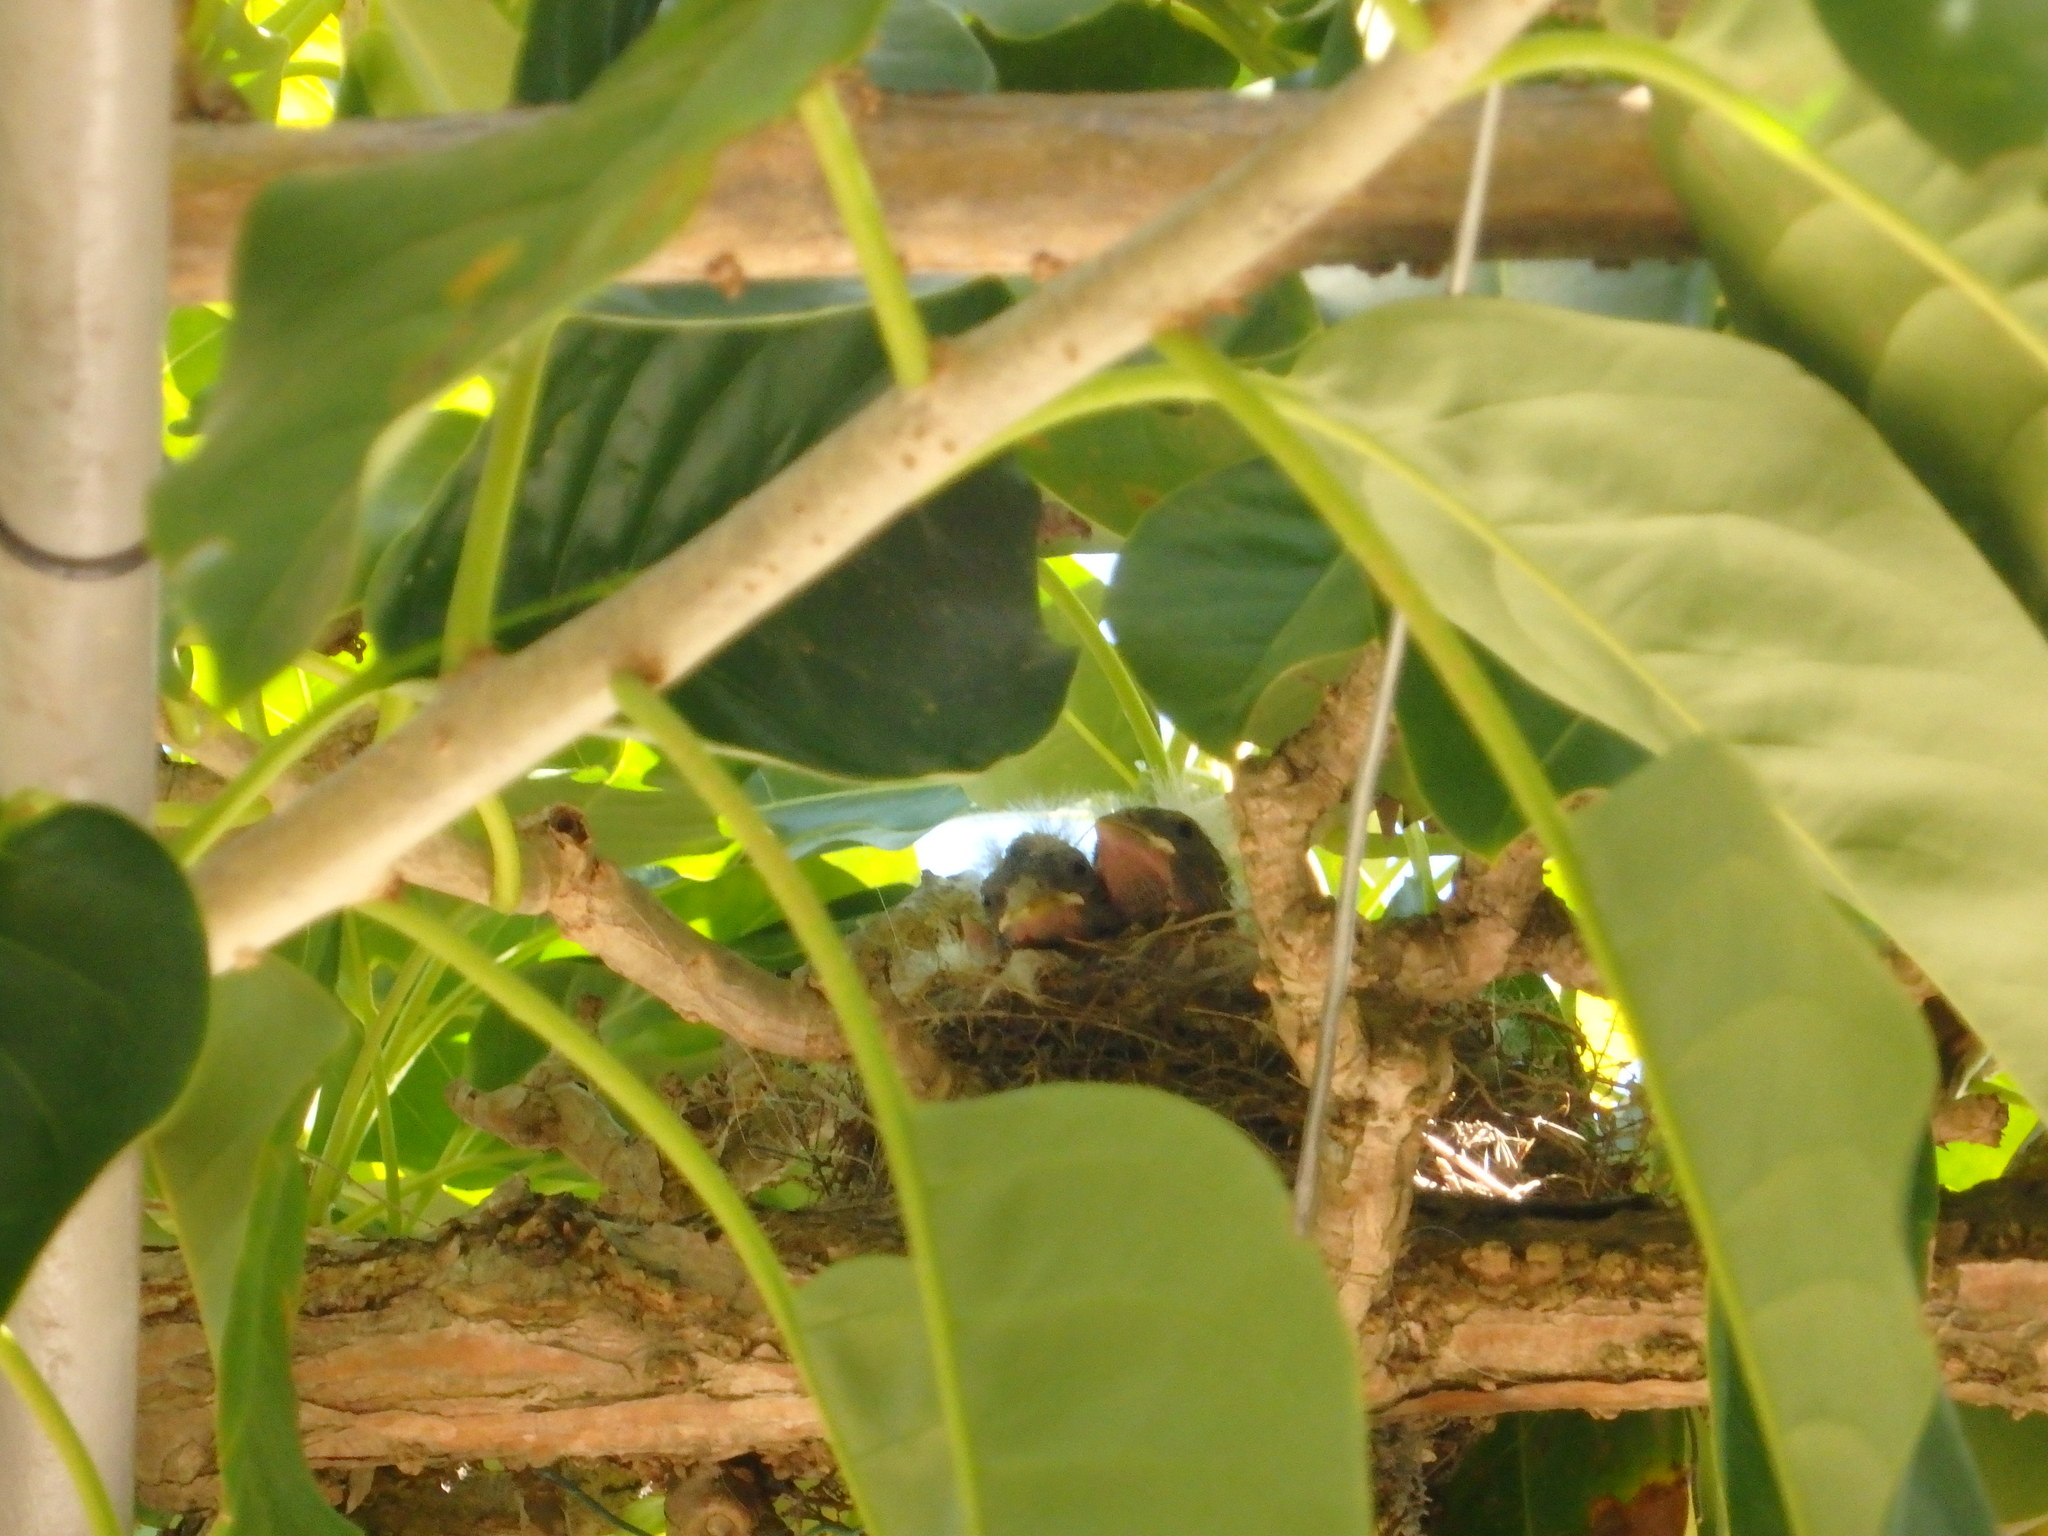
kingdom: Plantae
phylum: Tracheophyta
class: Liliopsida
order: Poales
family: Poaceae
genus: Chloris
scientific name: Chloris chloris
